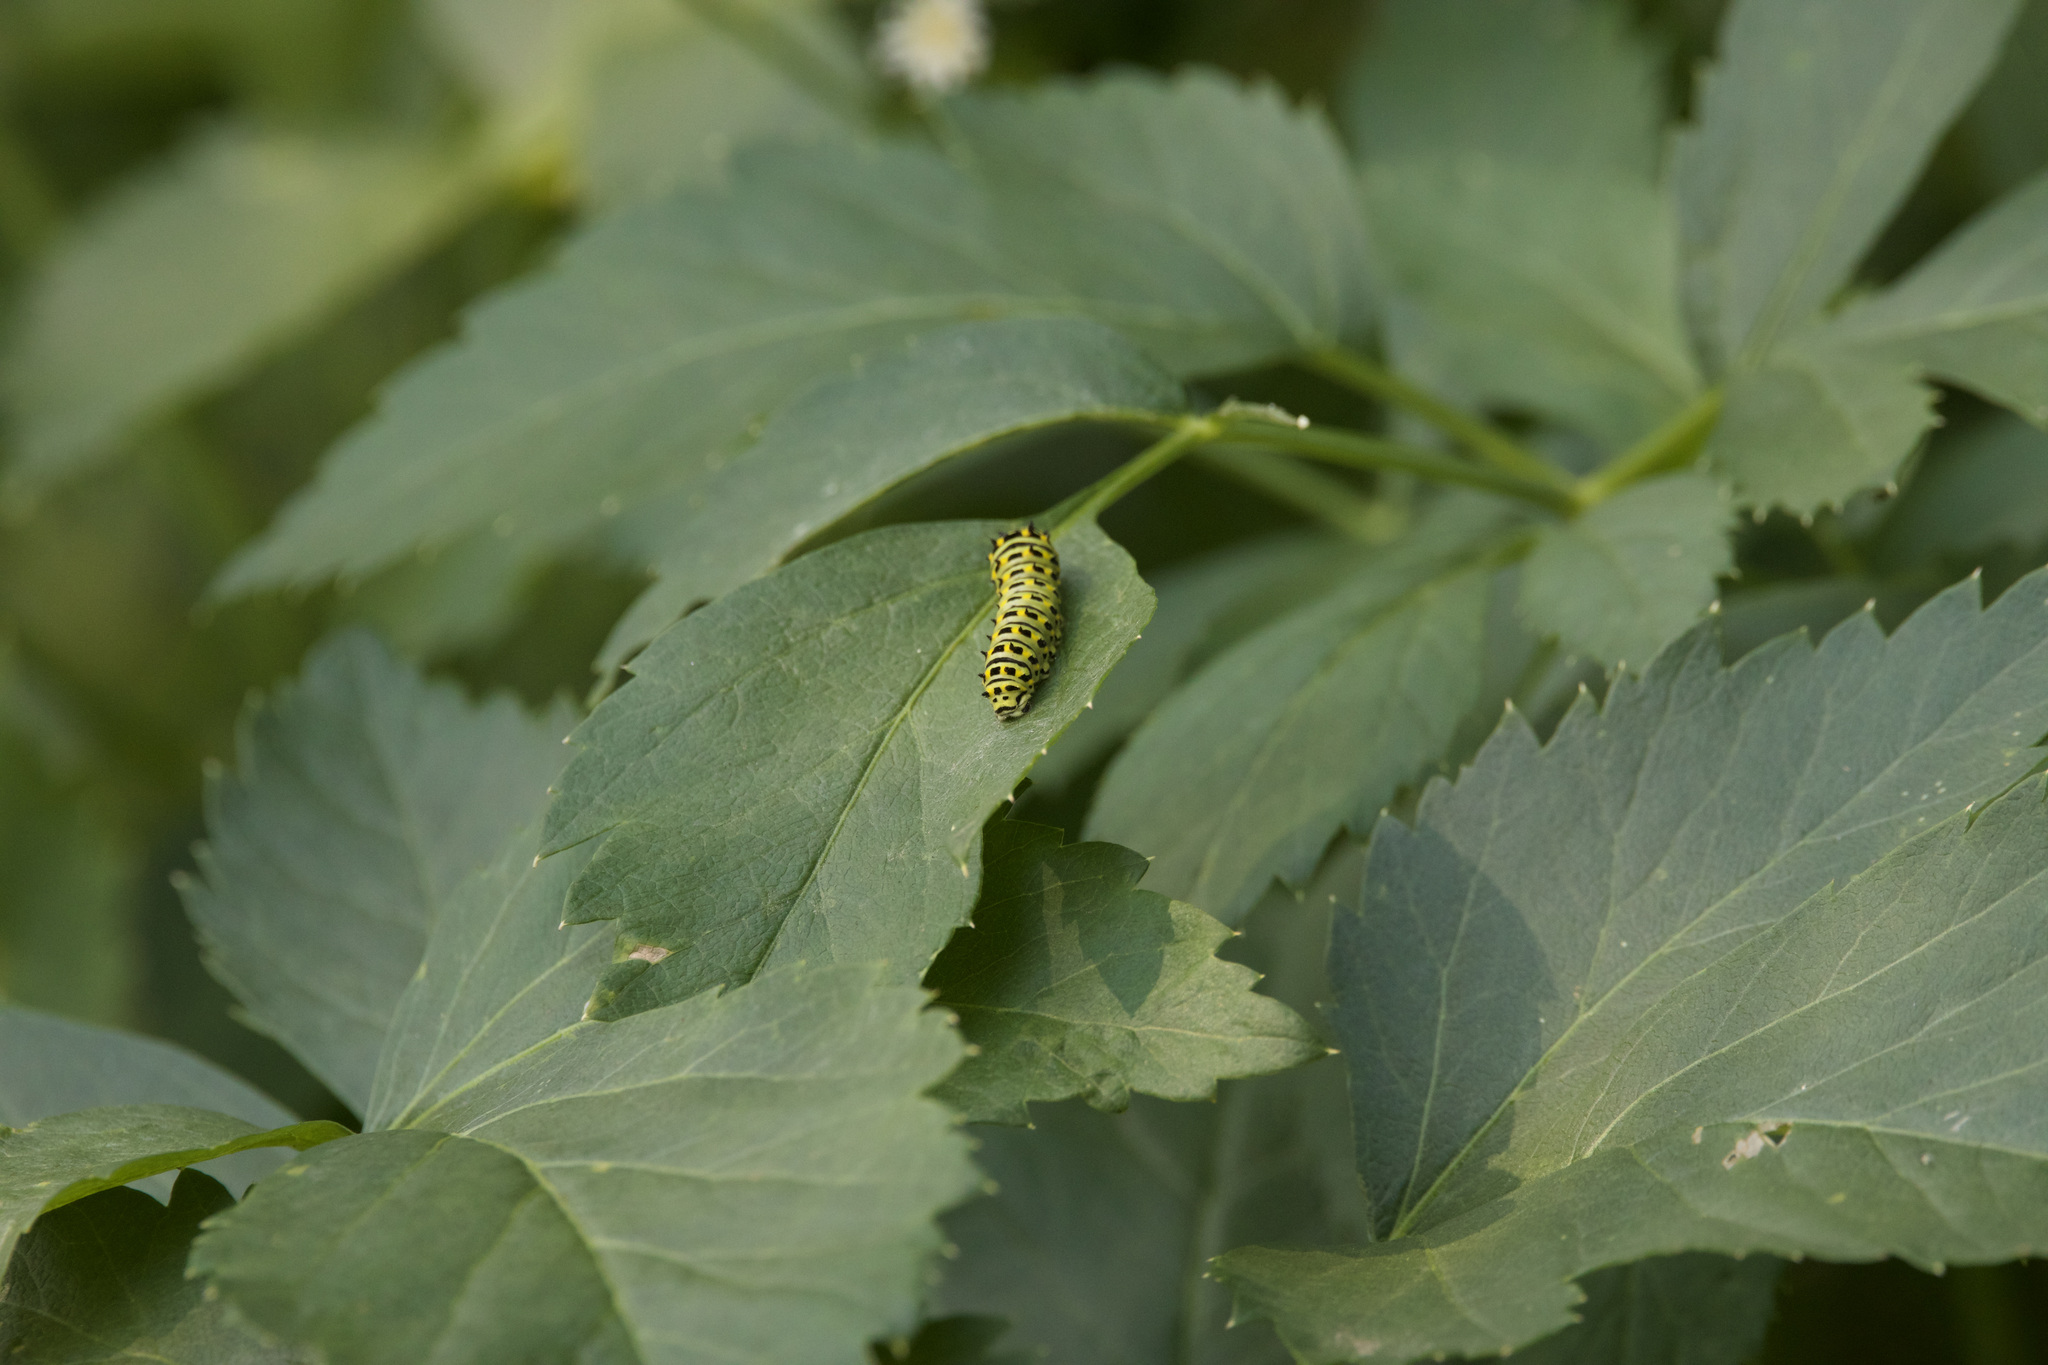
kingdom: Animalia
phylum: Arthropoda
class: Insecta
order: Lepidoptera
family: Papilionidae
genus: Papilio
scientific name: Papilio zelicaon
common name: Anise swallowtail
